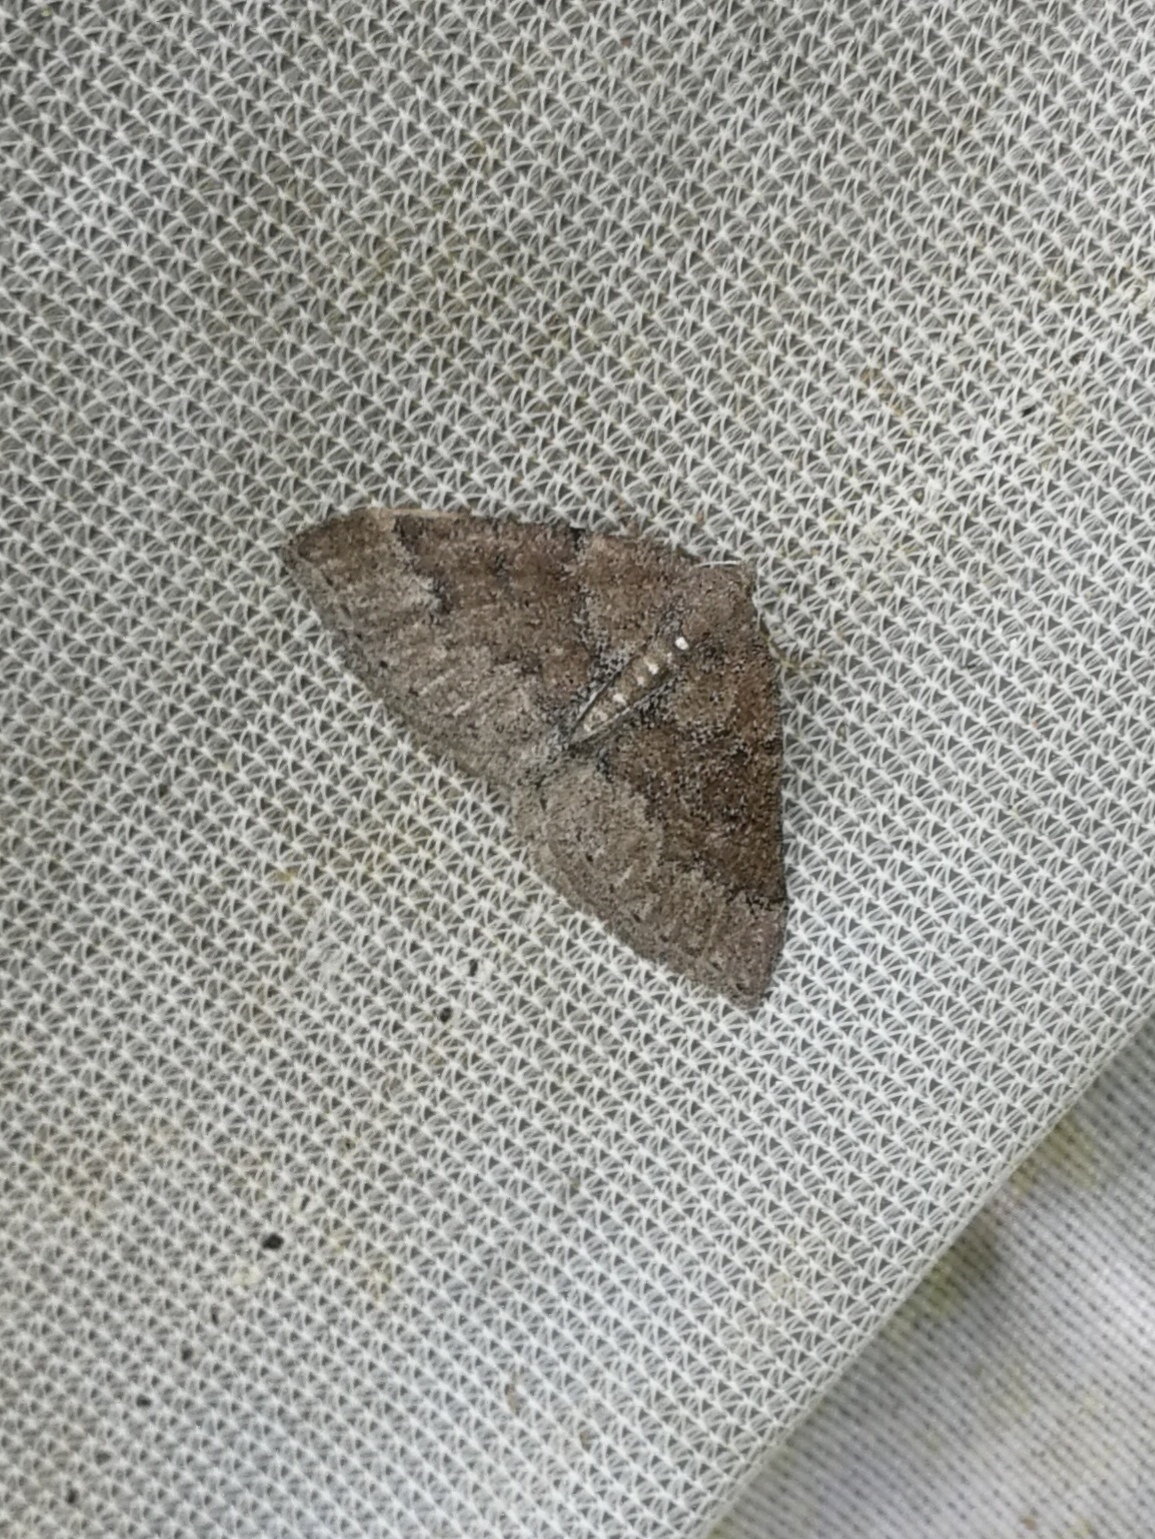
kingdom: Animalia
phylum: Arthropoda
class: Insecta
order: Lepidoptera
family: Geometridae
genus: Aleucis
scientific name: Aleucis distinctata
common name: Sloe carpet
